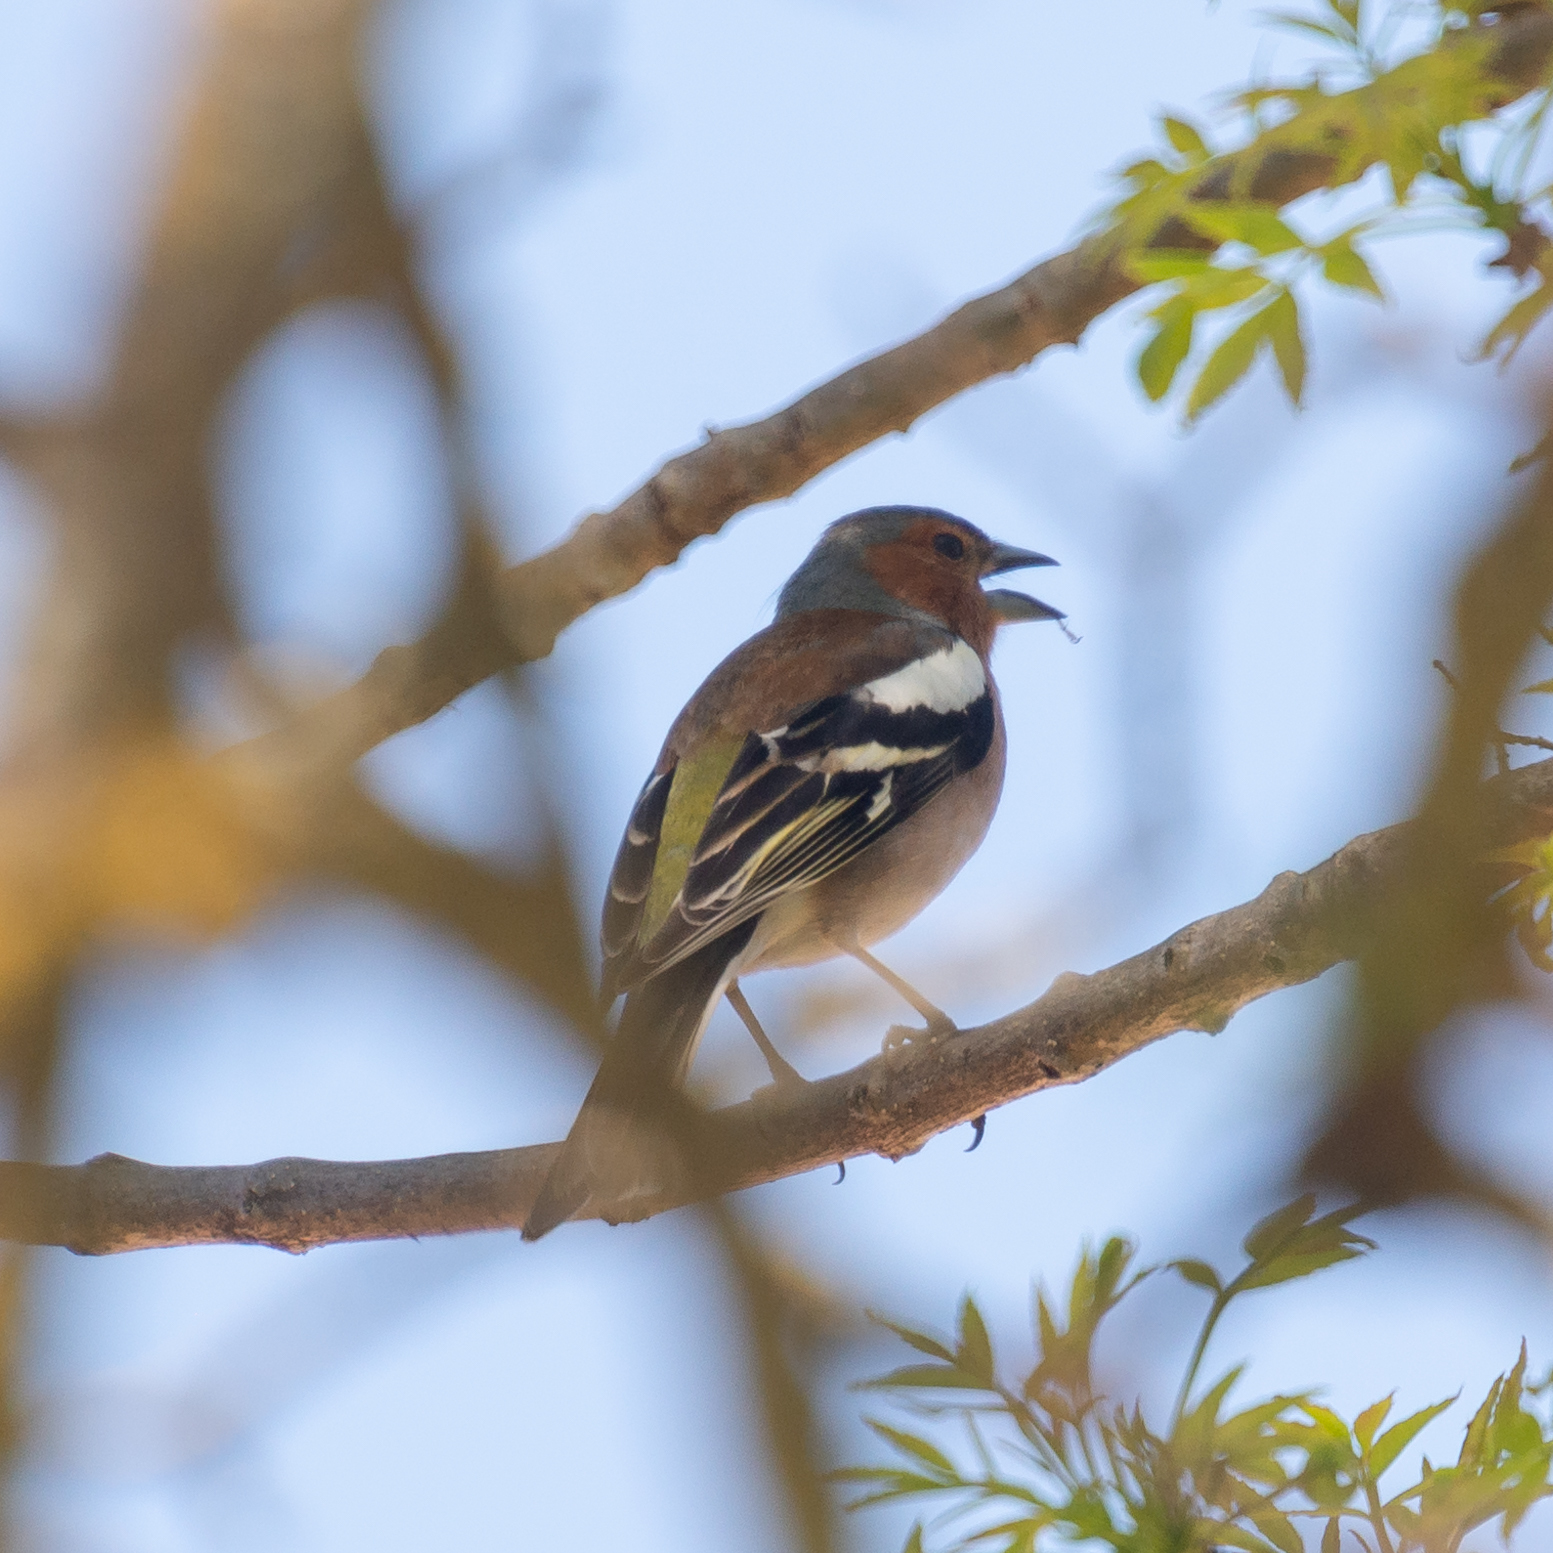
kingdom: Animalia
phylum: Chordata
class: Aves
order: Passeriformes
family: Fringillidae
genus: Fringilla
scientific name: Fringilla coelebs
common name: Common chaffinch
